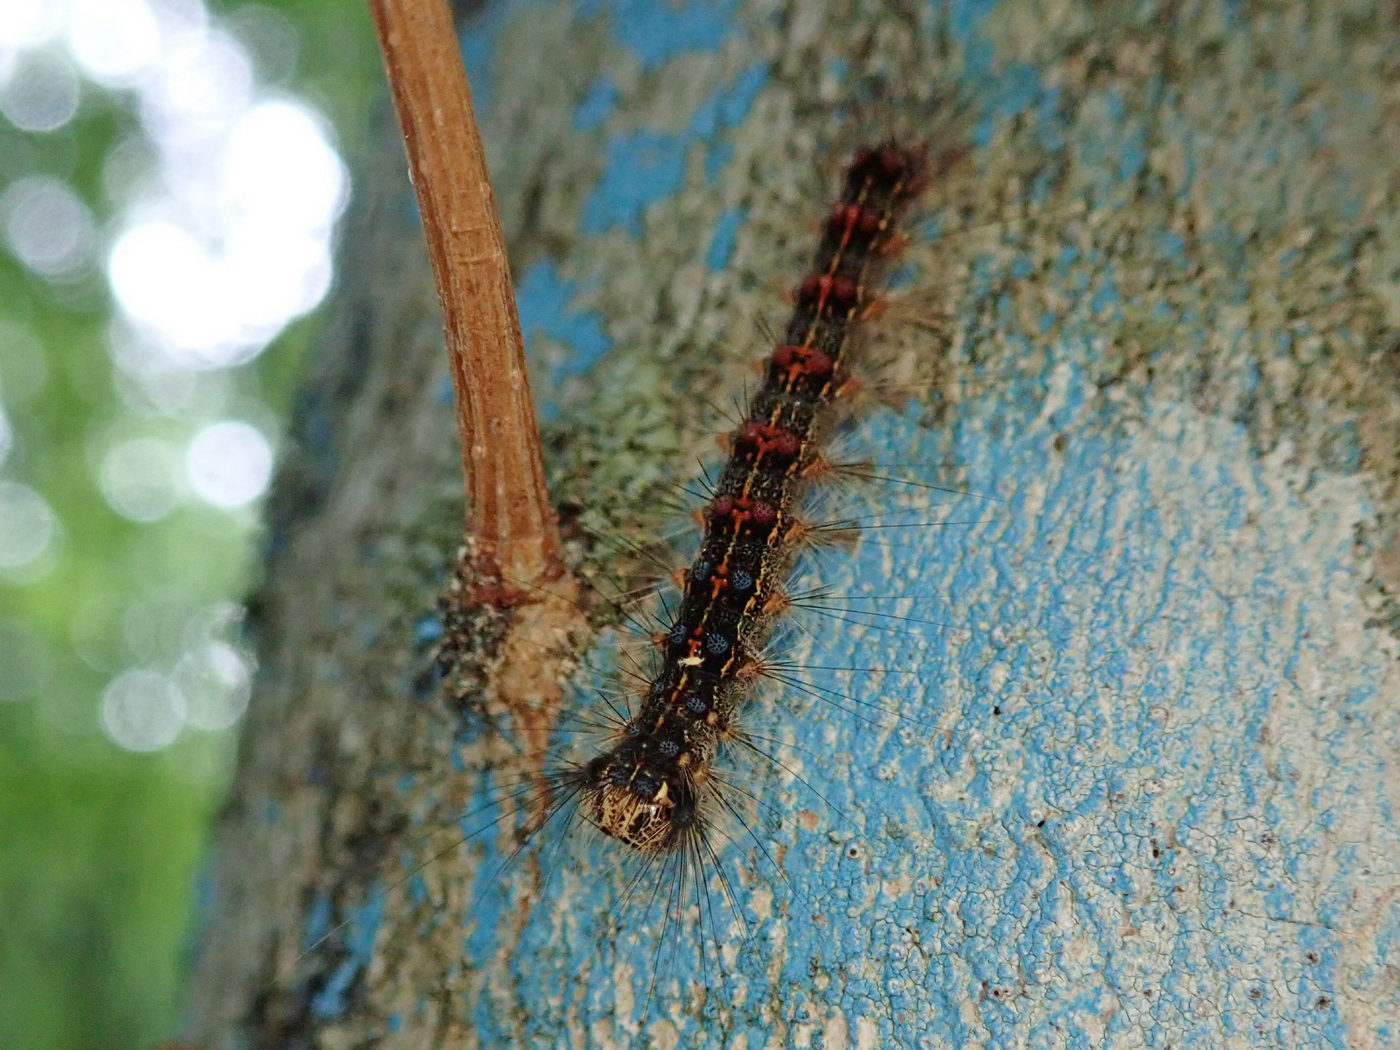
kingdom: Animalia
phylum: Arthropoda
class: Insecta
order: Lepidoptera
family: Erebidae
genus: Lymantria
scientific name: Lymantria dispar
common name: Gypsy moth
